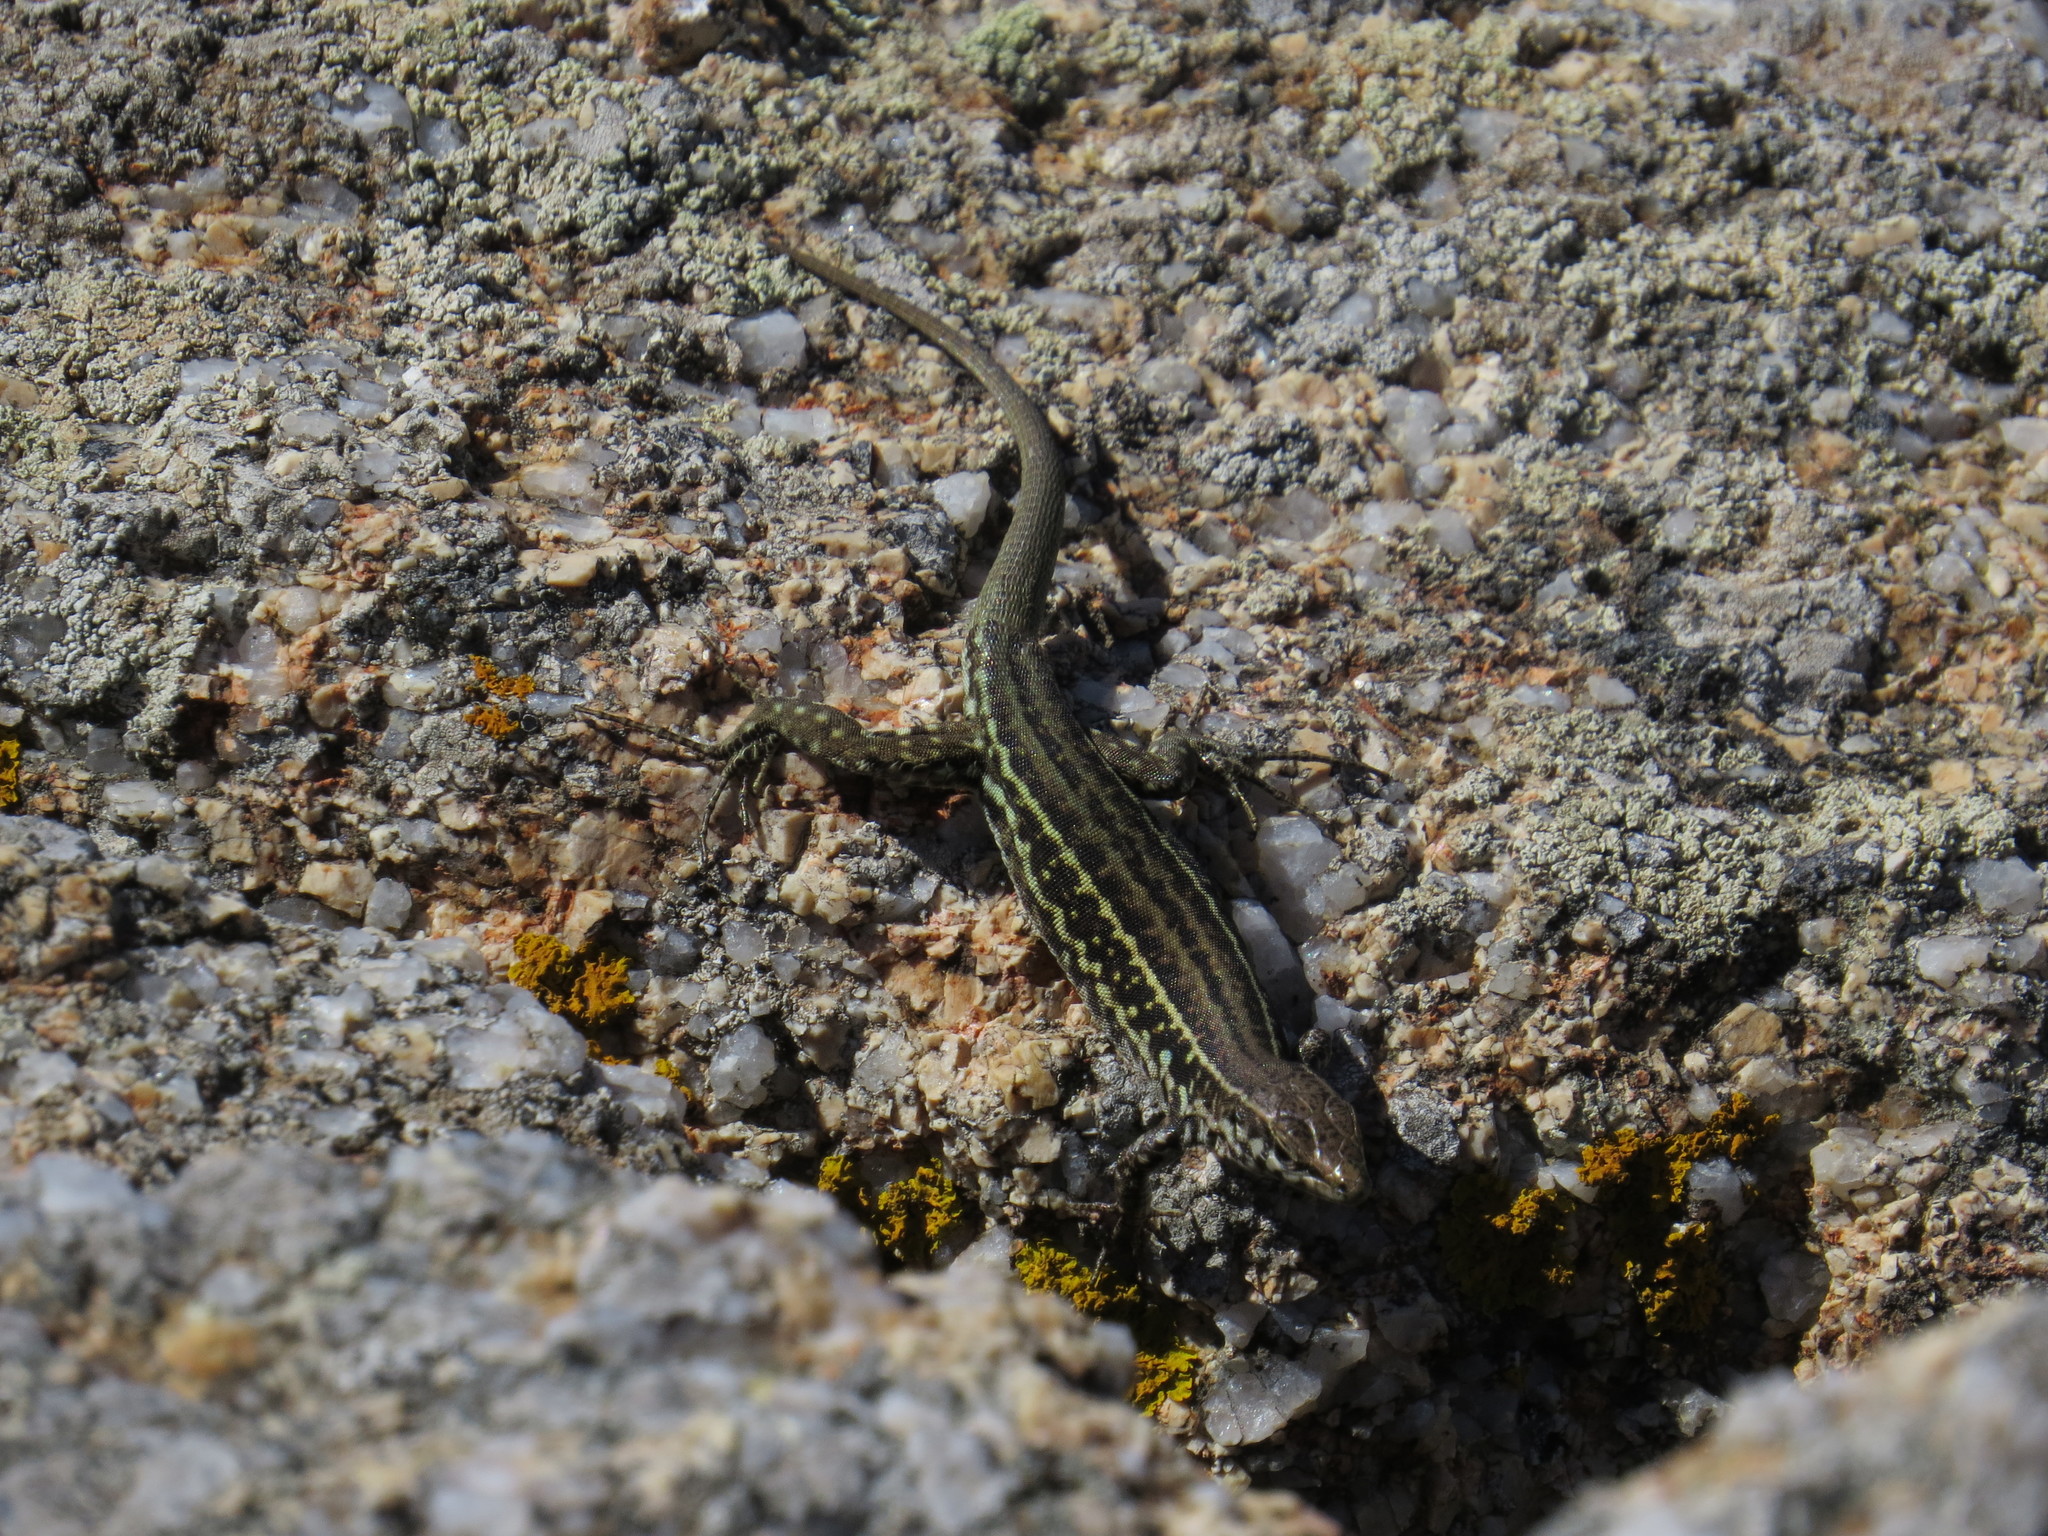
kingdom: Animalia
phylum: Chordata
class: Squamata
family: Lacertidae
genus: Podarcis
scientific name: Podarcis tiliguerta
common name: Tyrrhenian wall lizard
